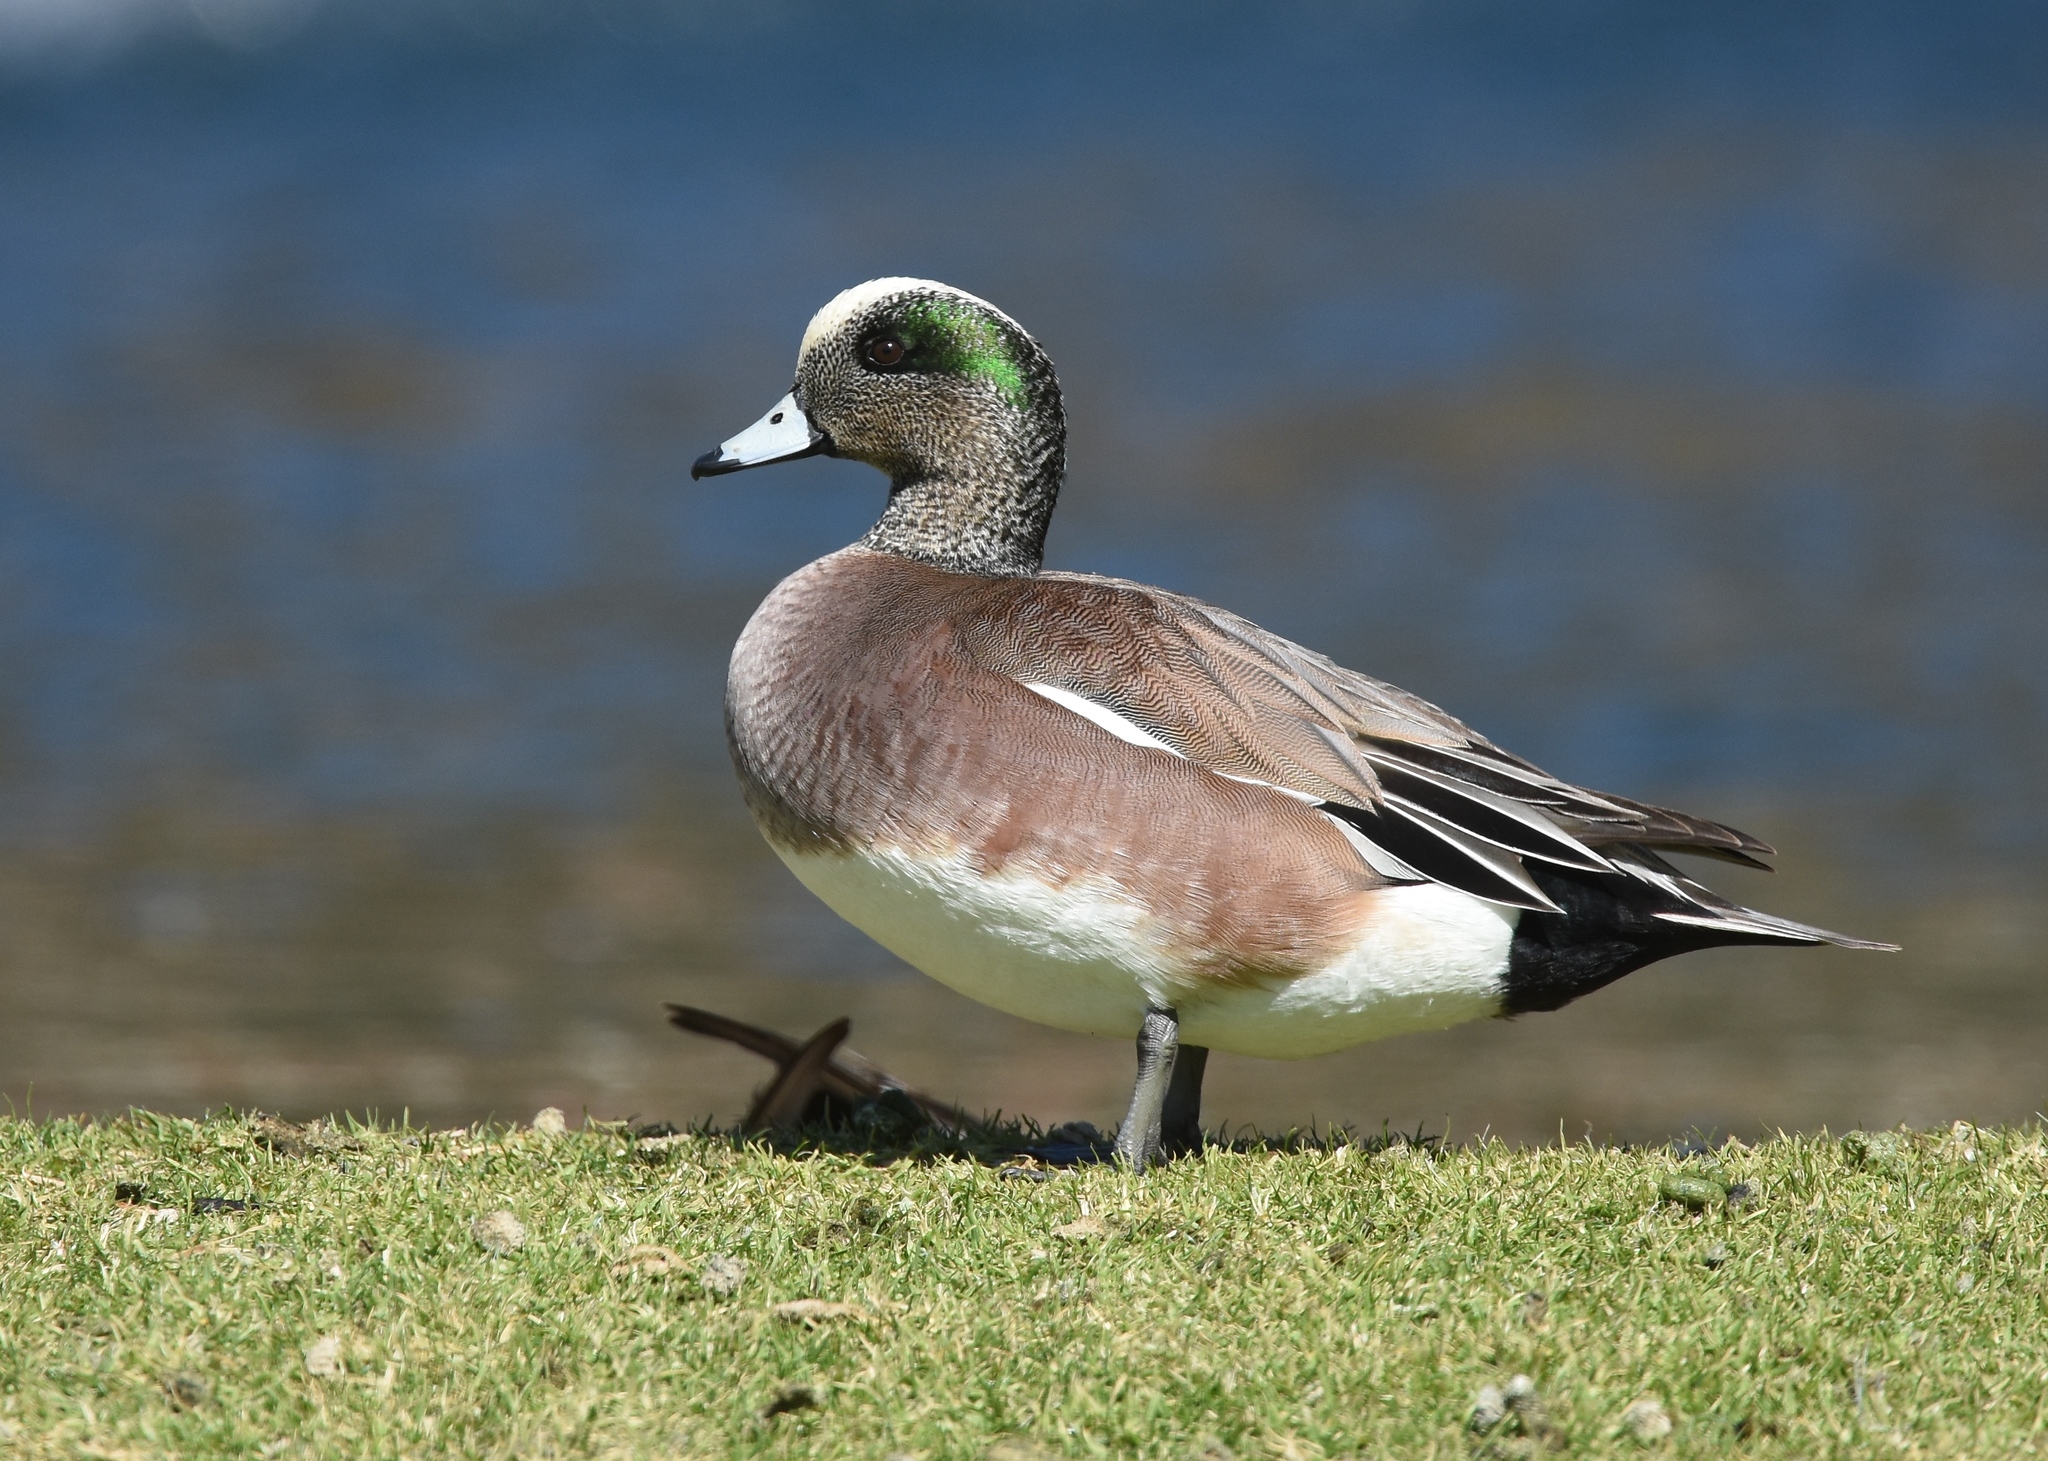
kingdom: Animalia
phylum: Chordata
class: Aves
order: Anseriformes
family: Anatidae
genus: Mareca
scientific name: Mareca americana
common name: American wigeon
